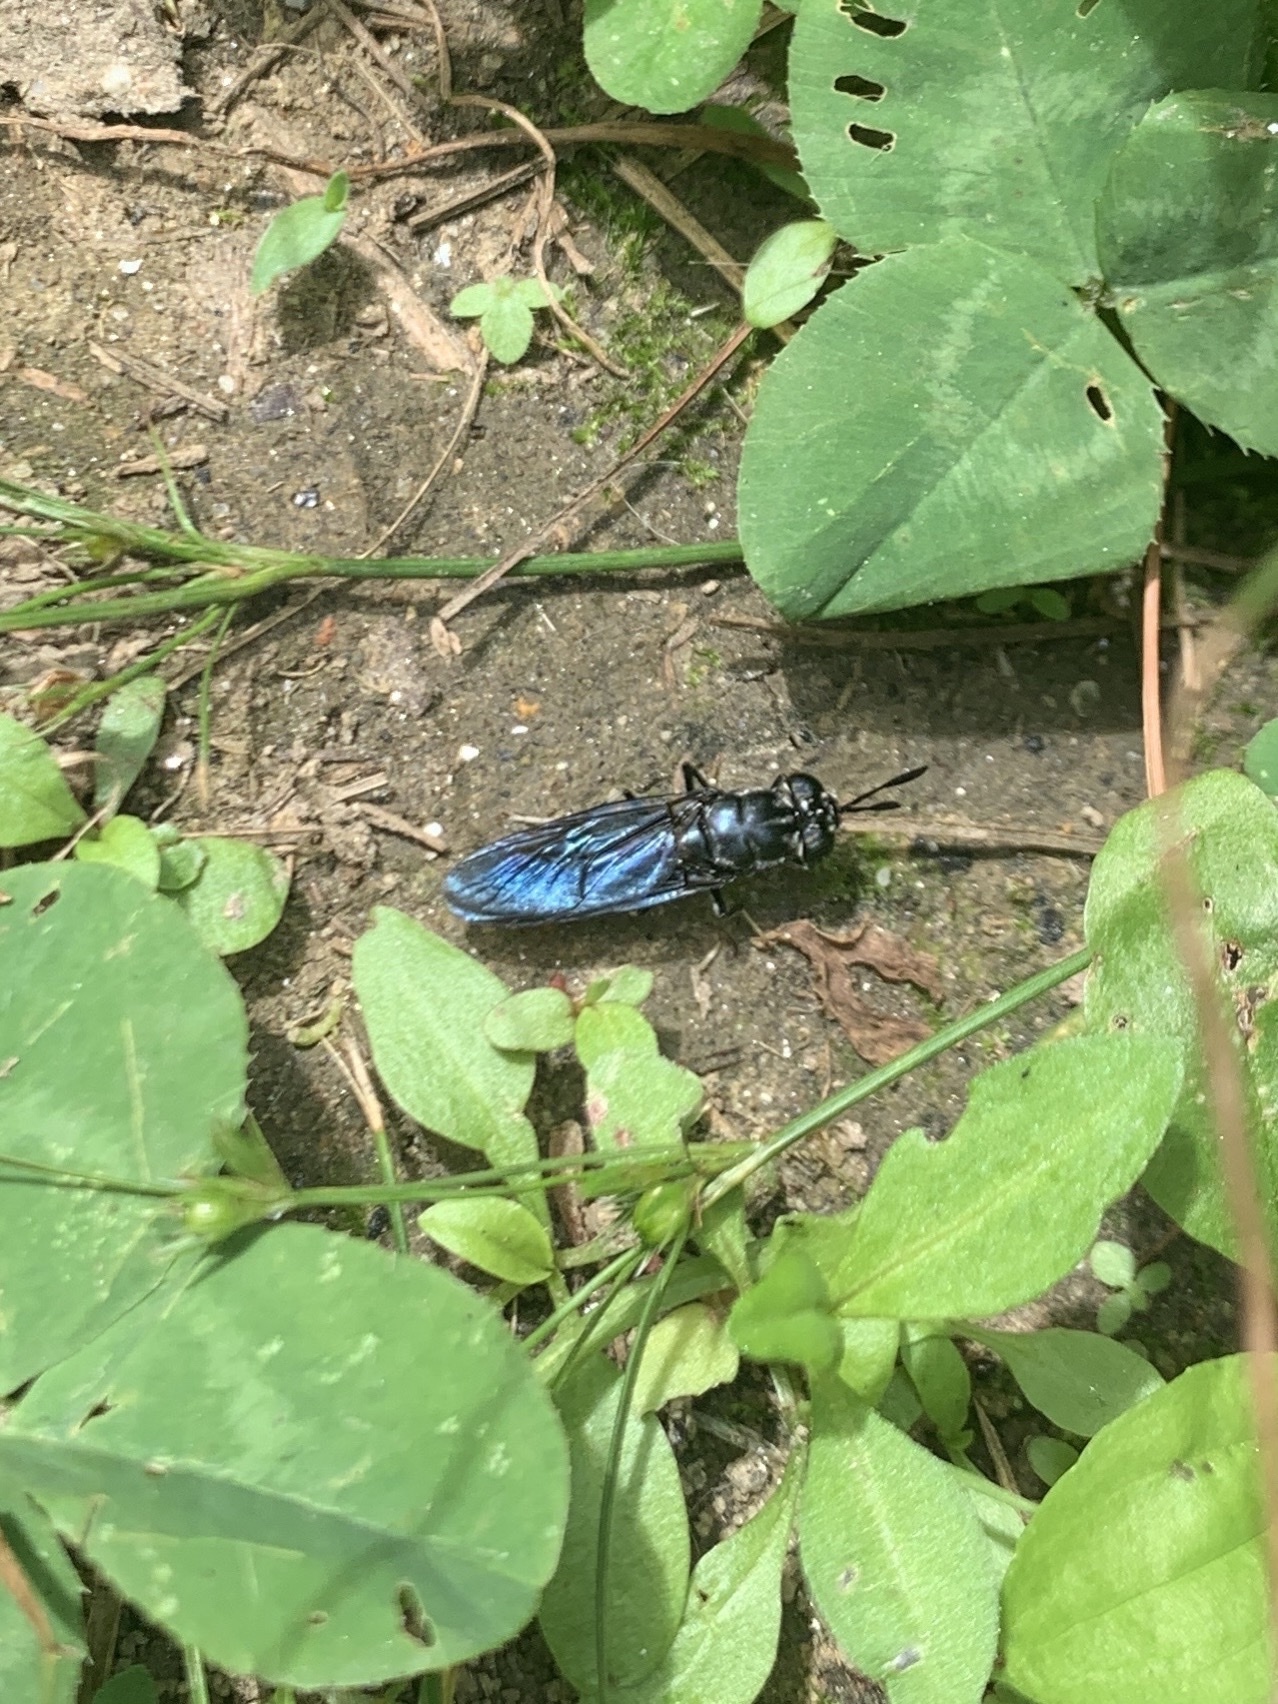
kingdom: Animalia
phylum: Arthropoda
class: Insecta
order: Diptera
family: Stratiomyidae
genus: Hermetia
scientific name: Hermetia illucens
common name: Black soldier fly
